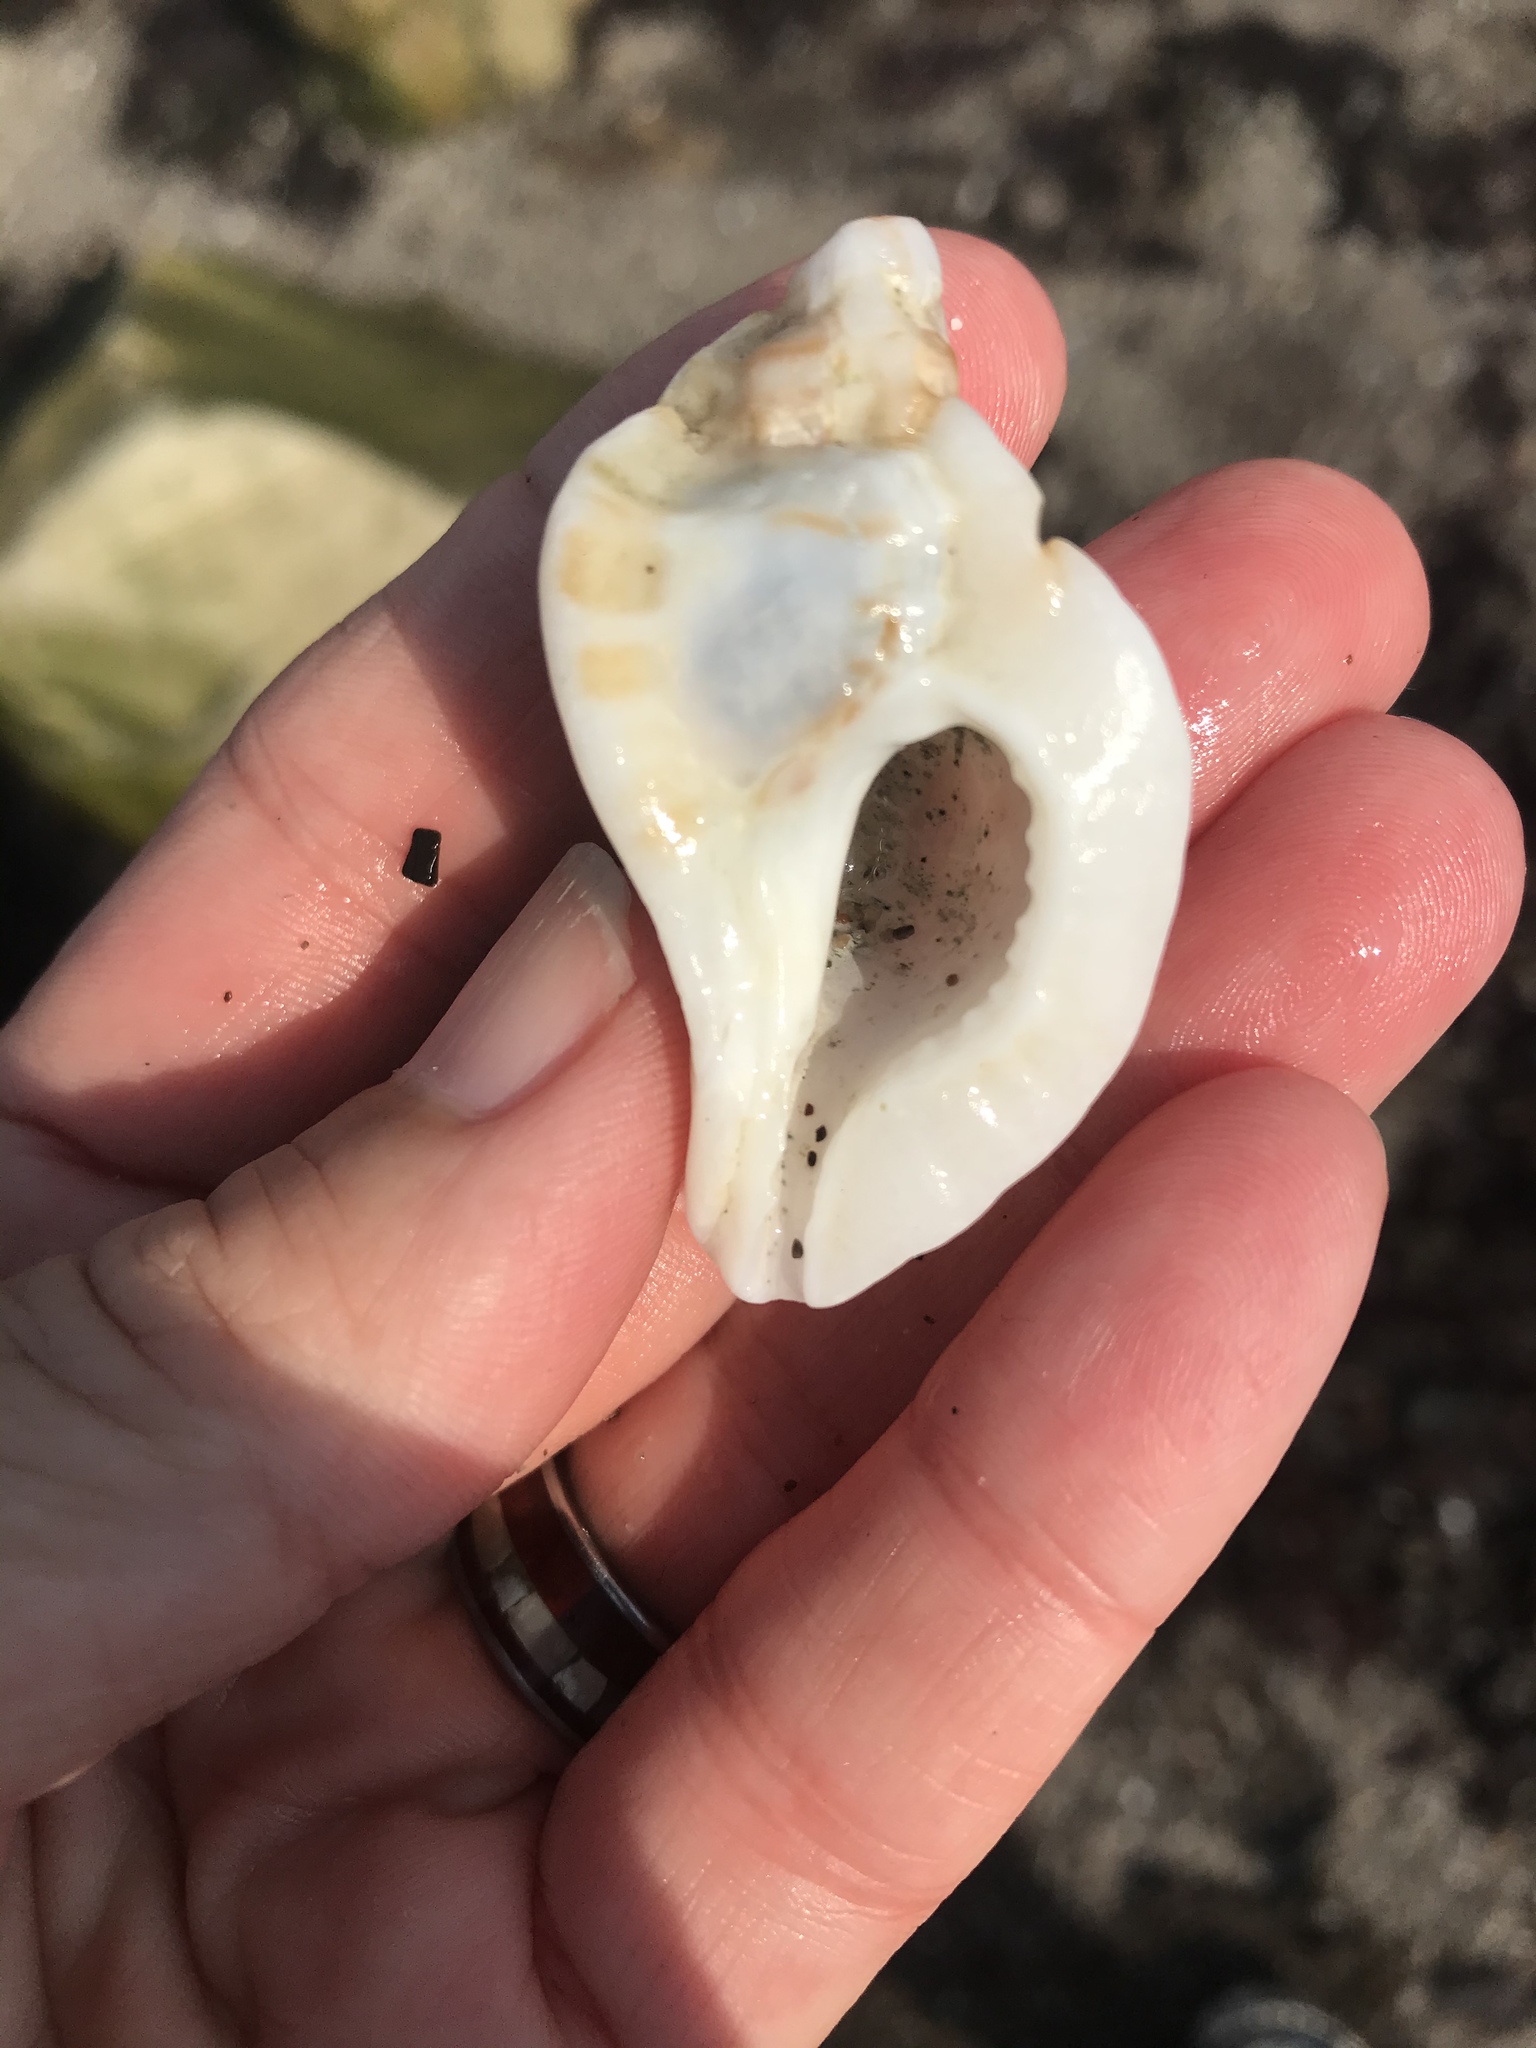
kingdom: Animalia
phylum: Mollusca
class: Gastropoda
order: Neogastropoda
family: Muricidae
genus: Ceratostoma
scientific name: Ceratostoma foliatum
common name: Foliate thorn purpura
